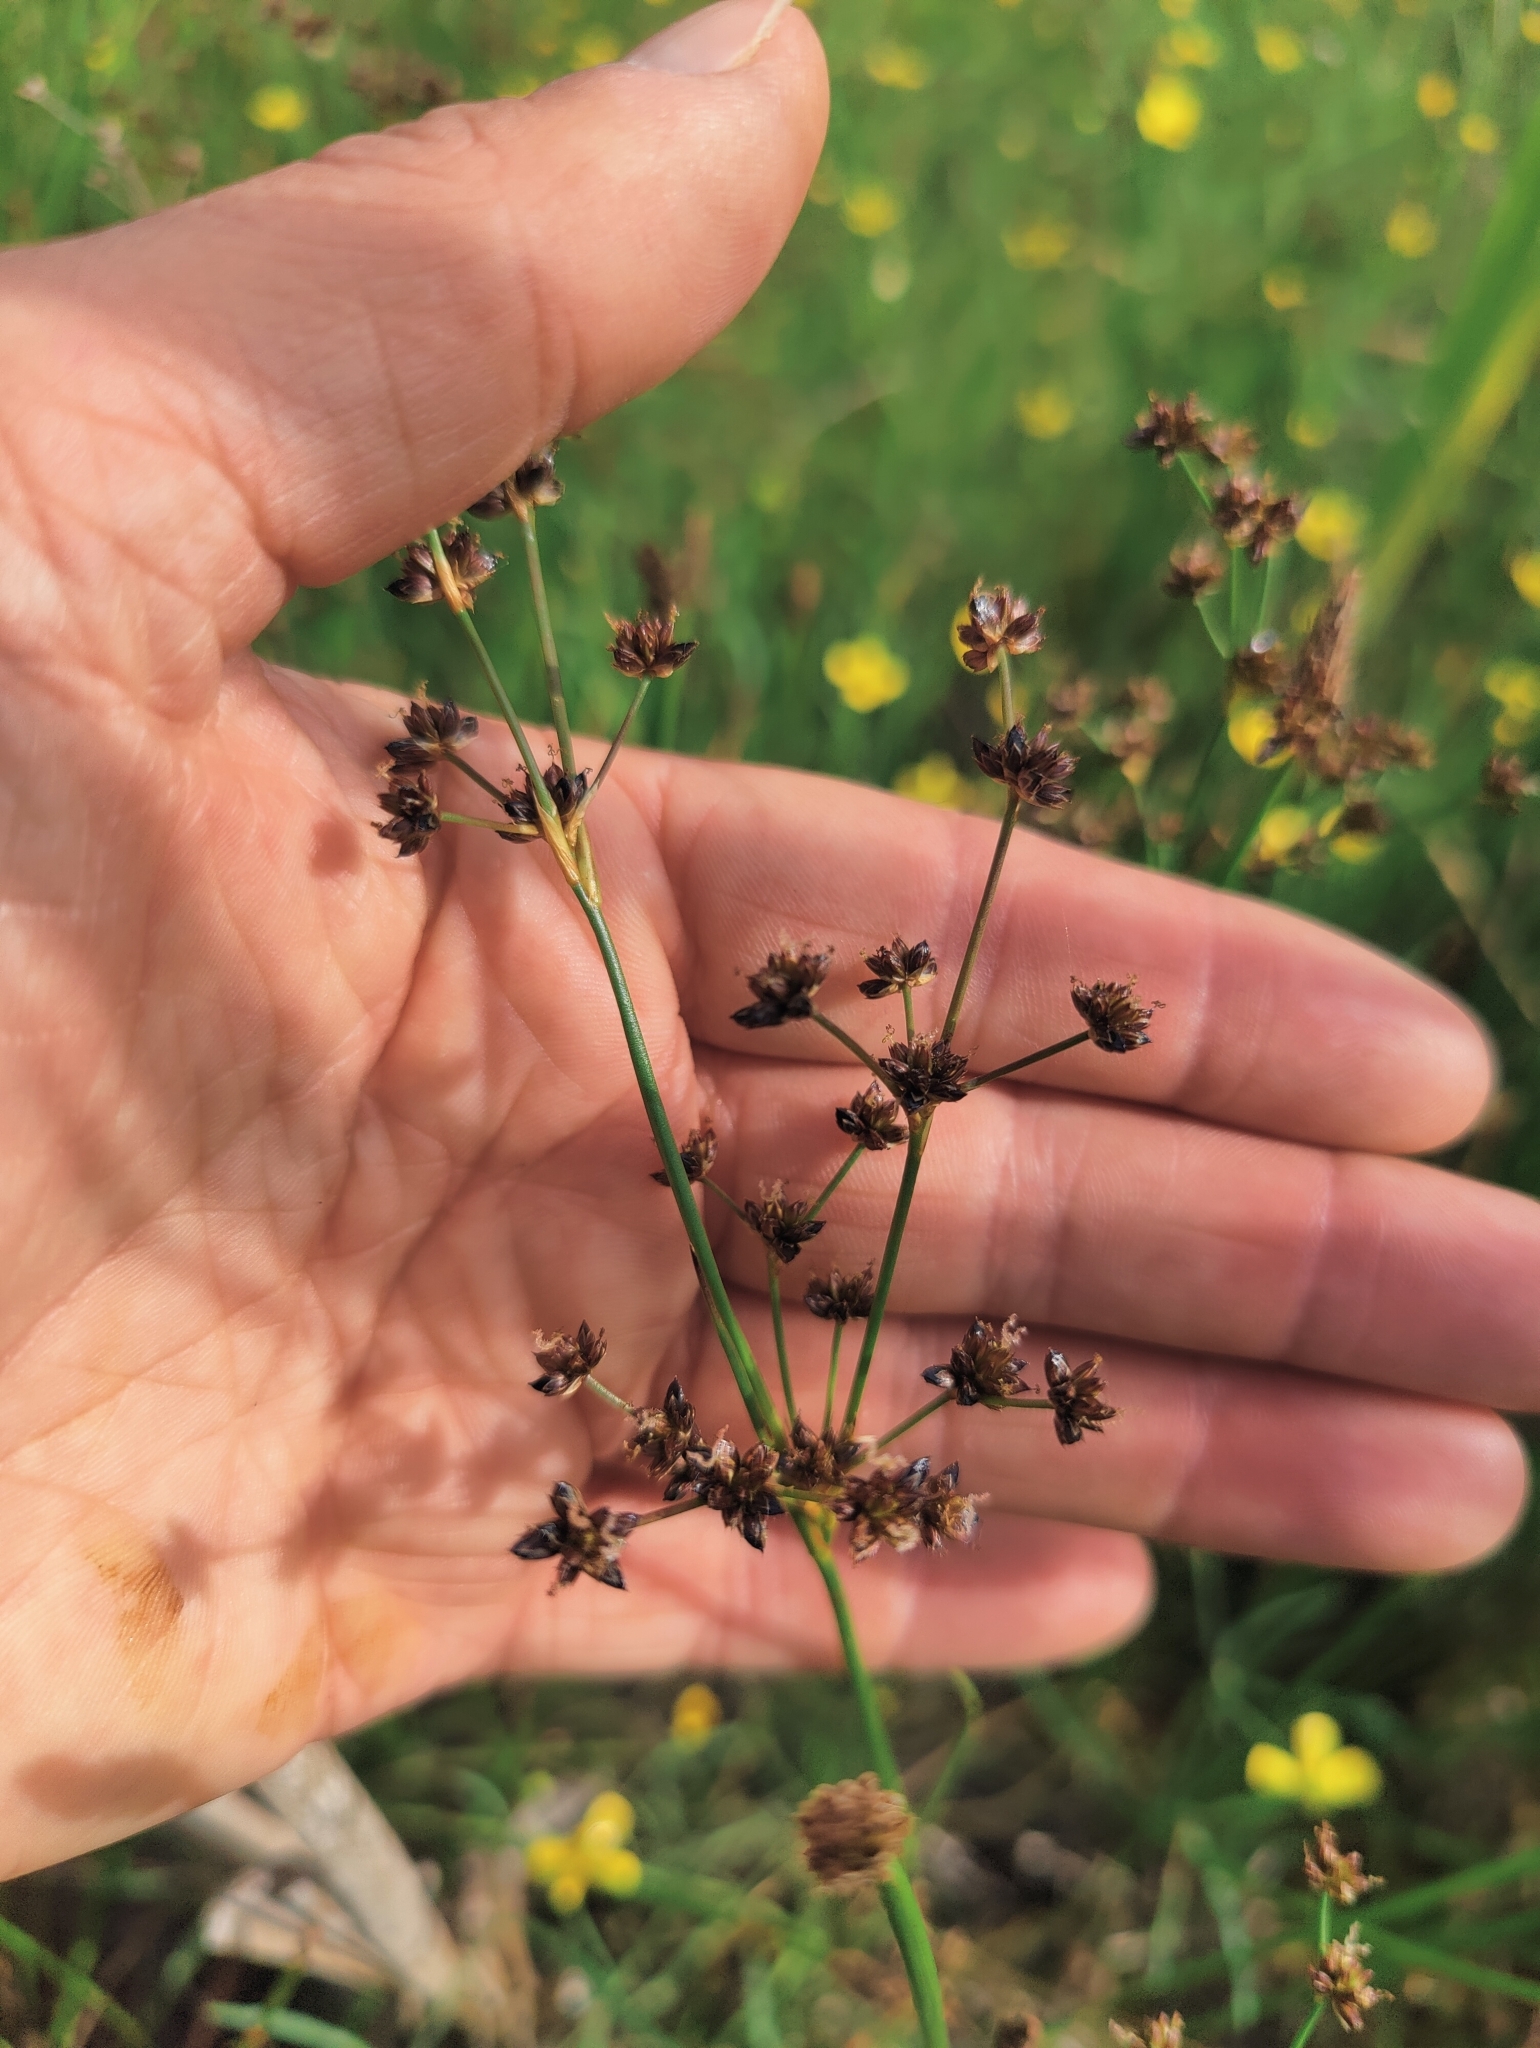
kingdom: Plantae
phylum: Tracheophyta
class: Liliopsida
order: Poales
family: Juncaceae
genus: Juncus
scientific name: Juncus articulatus
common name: Jointed rush
